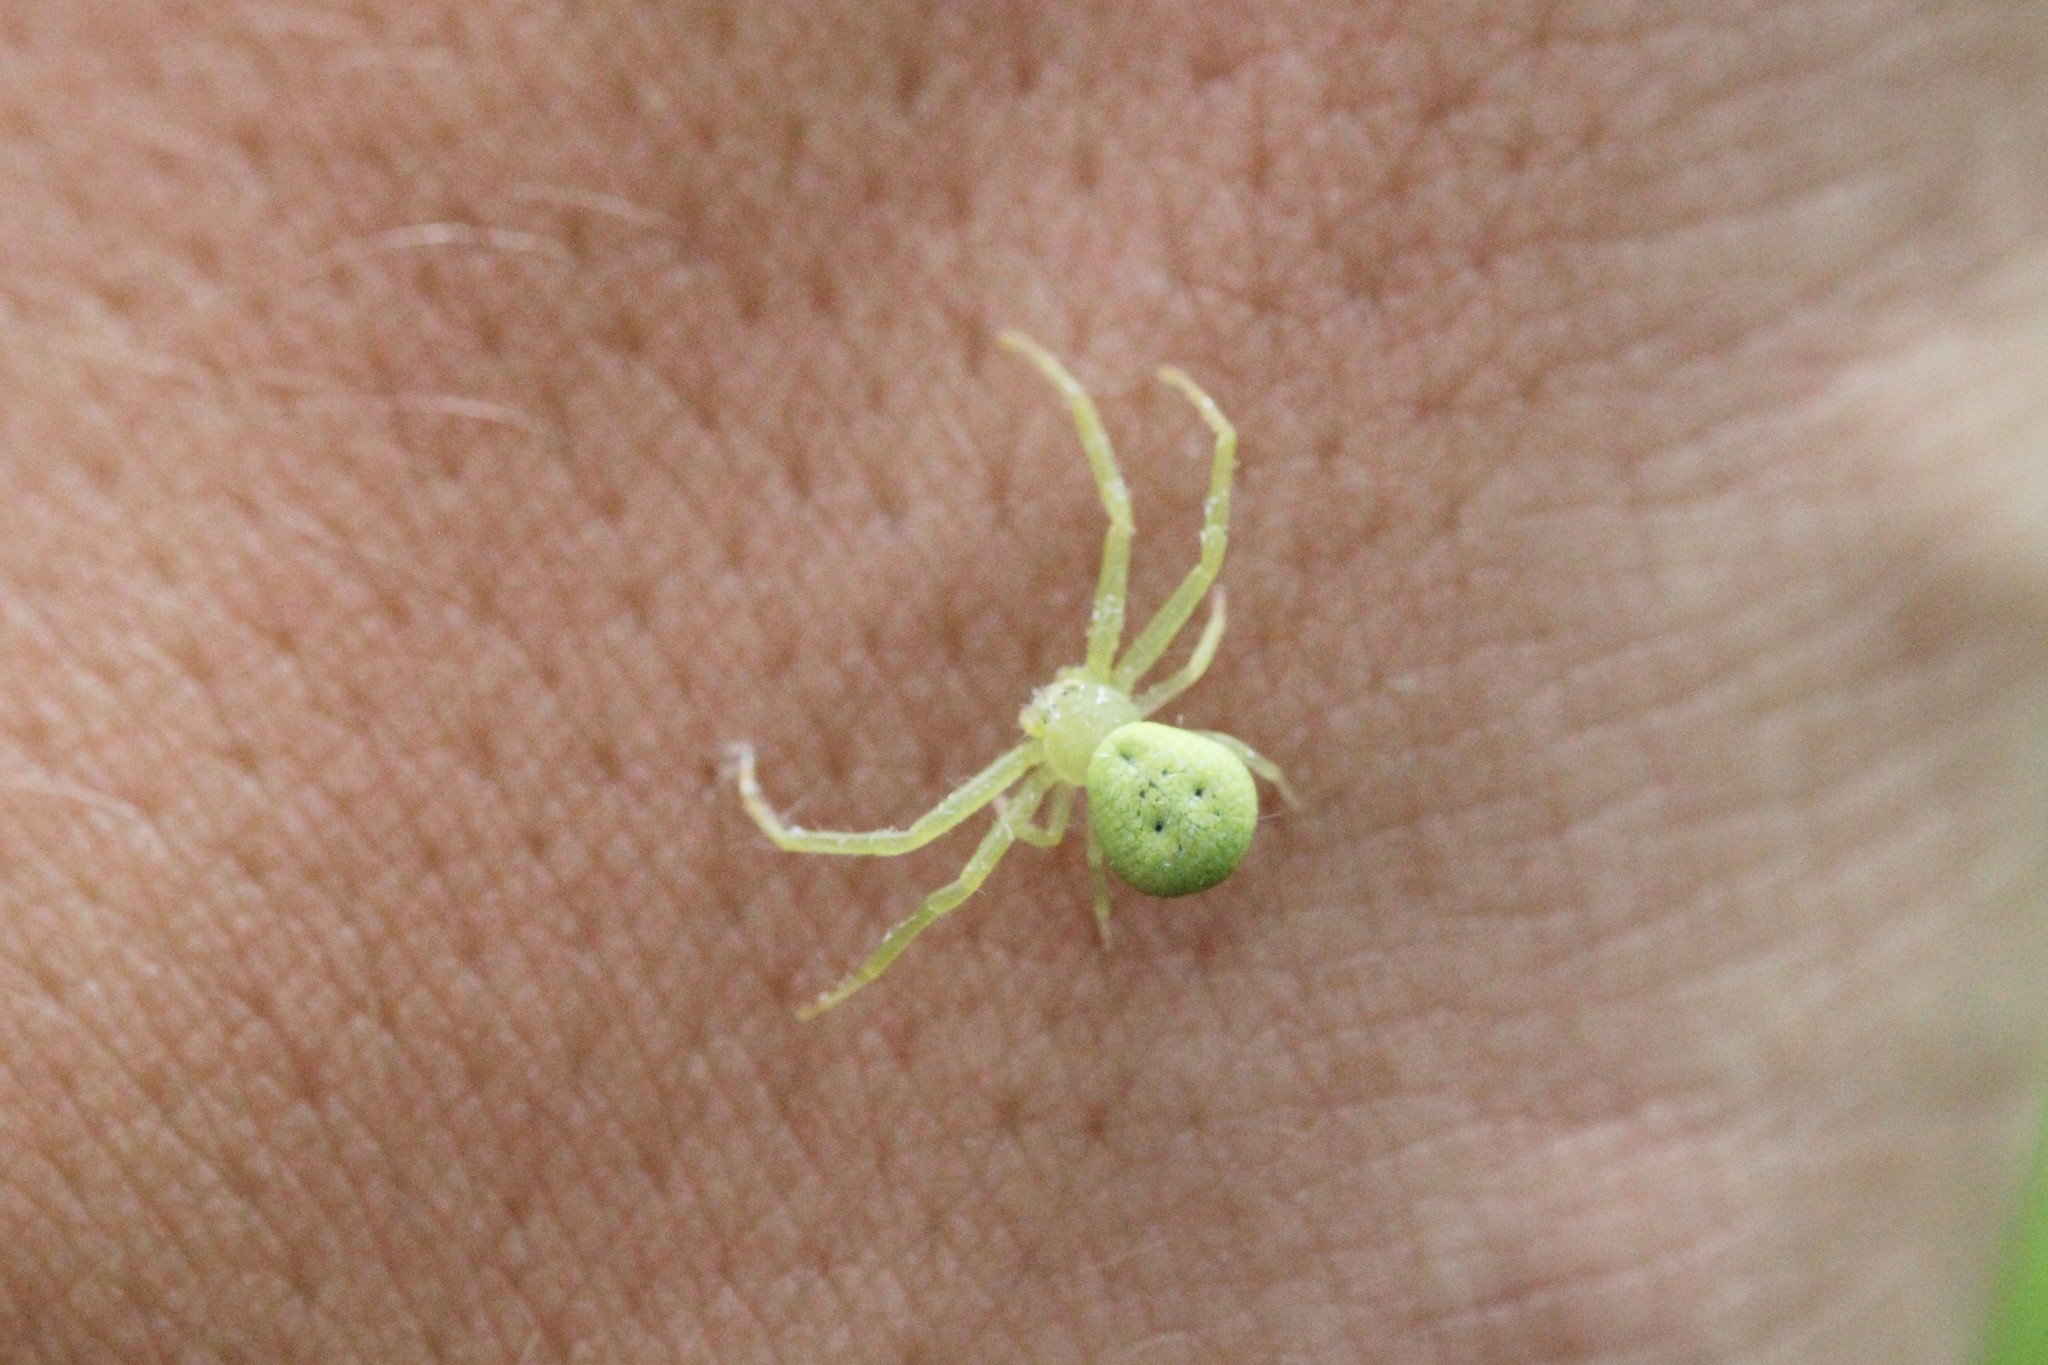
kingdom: Animalia
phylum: Arthropoda
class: Arachnida
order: Araneae
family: Thomisidae
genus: Misumessus
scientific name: Misumessus oblongus
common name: American green crab spider
